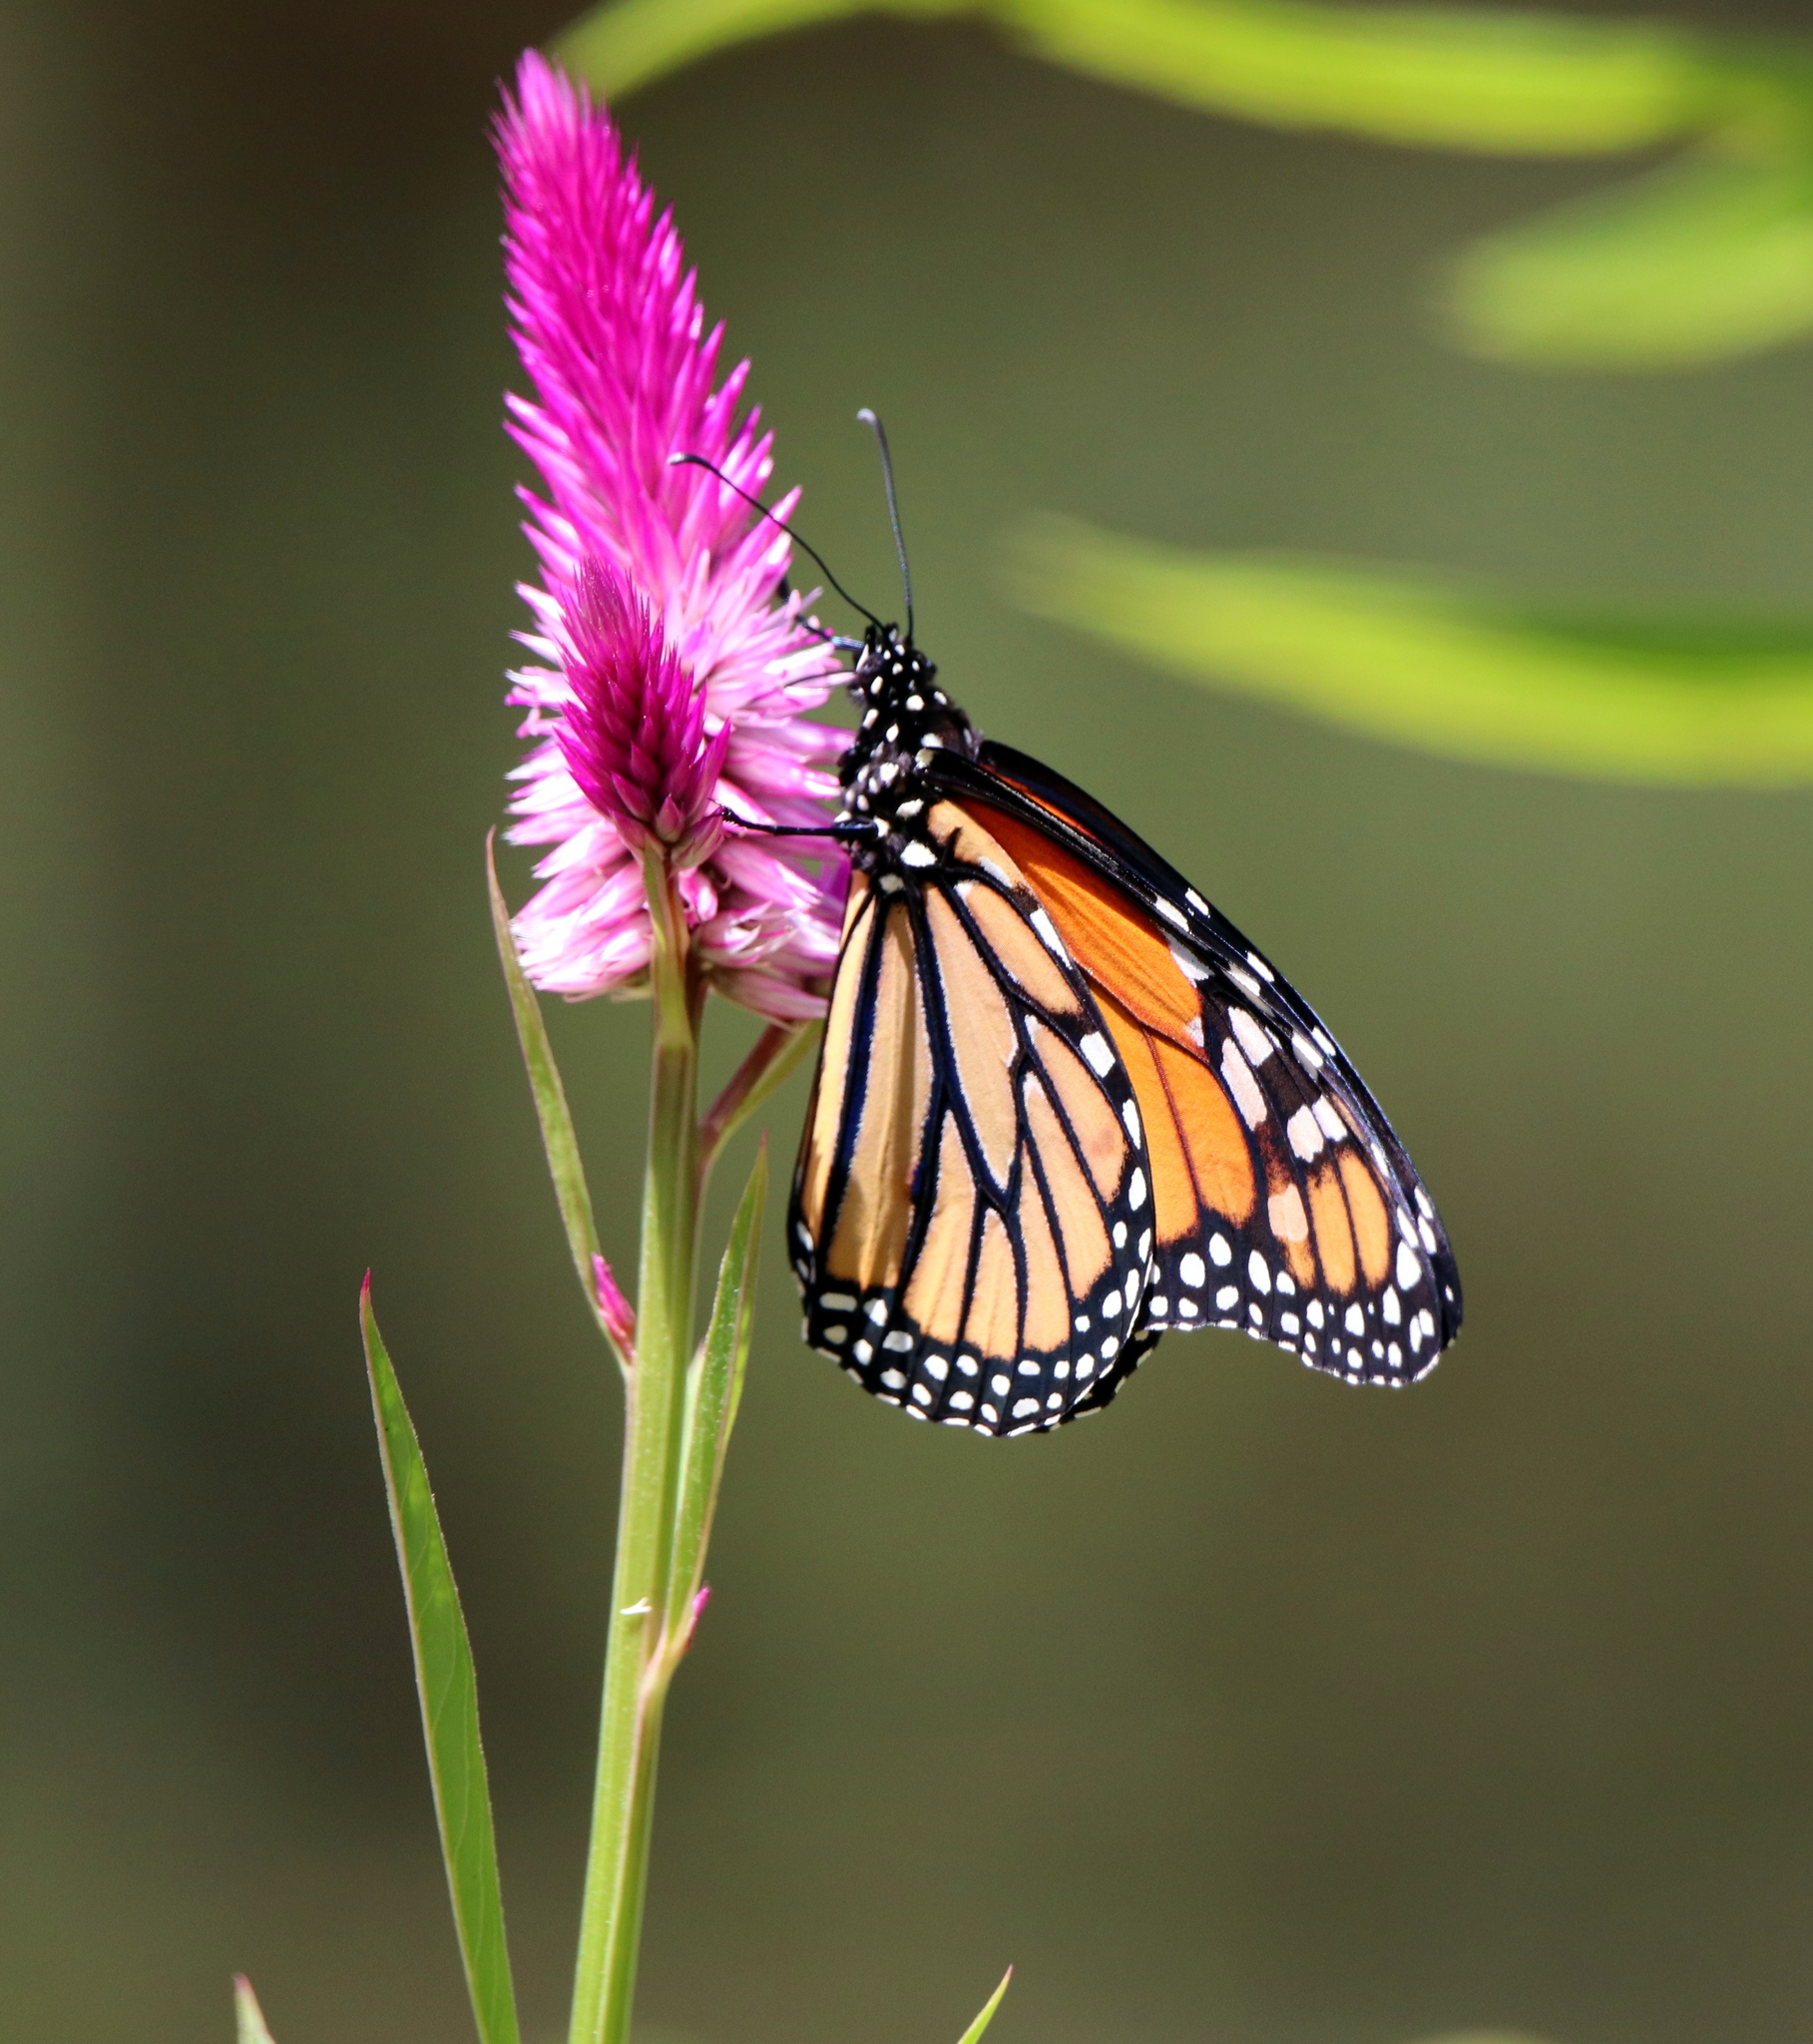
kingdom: Plantae
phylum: Tracheophyta
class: Magnoliopsida
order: Caryophyllales
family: Amaranthaceae
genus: Celosia
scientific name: Celosia argentea
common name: Feather cockscomb
